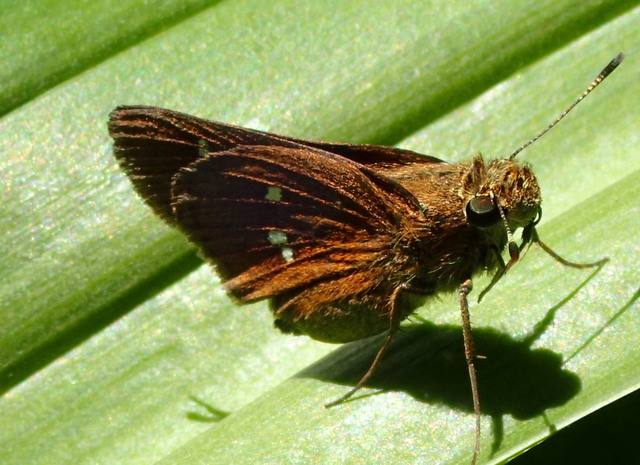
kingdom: Animalia
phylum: Arthropoda
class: Insecta
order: Lepidoptera
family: Hesperiidae
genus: Oligoria
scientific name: Oligoria maculata
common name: Twin-spot skipper
